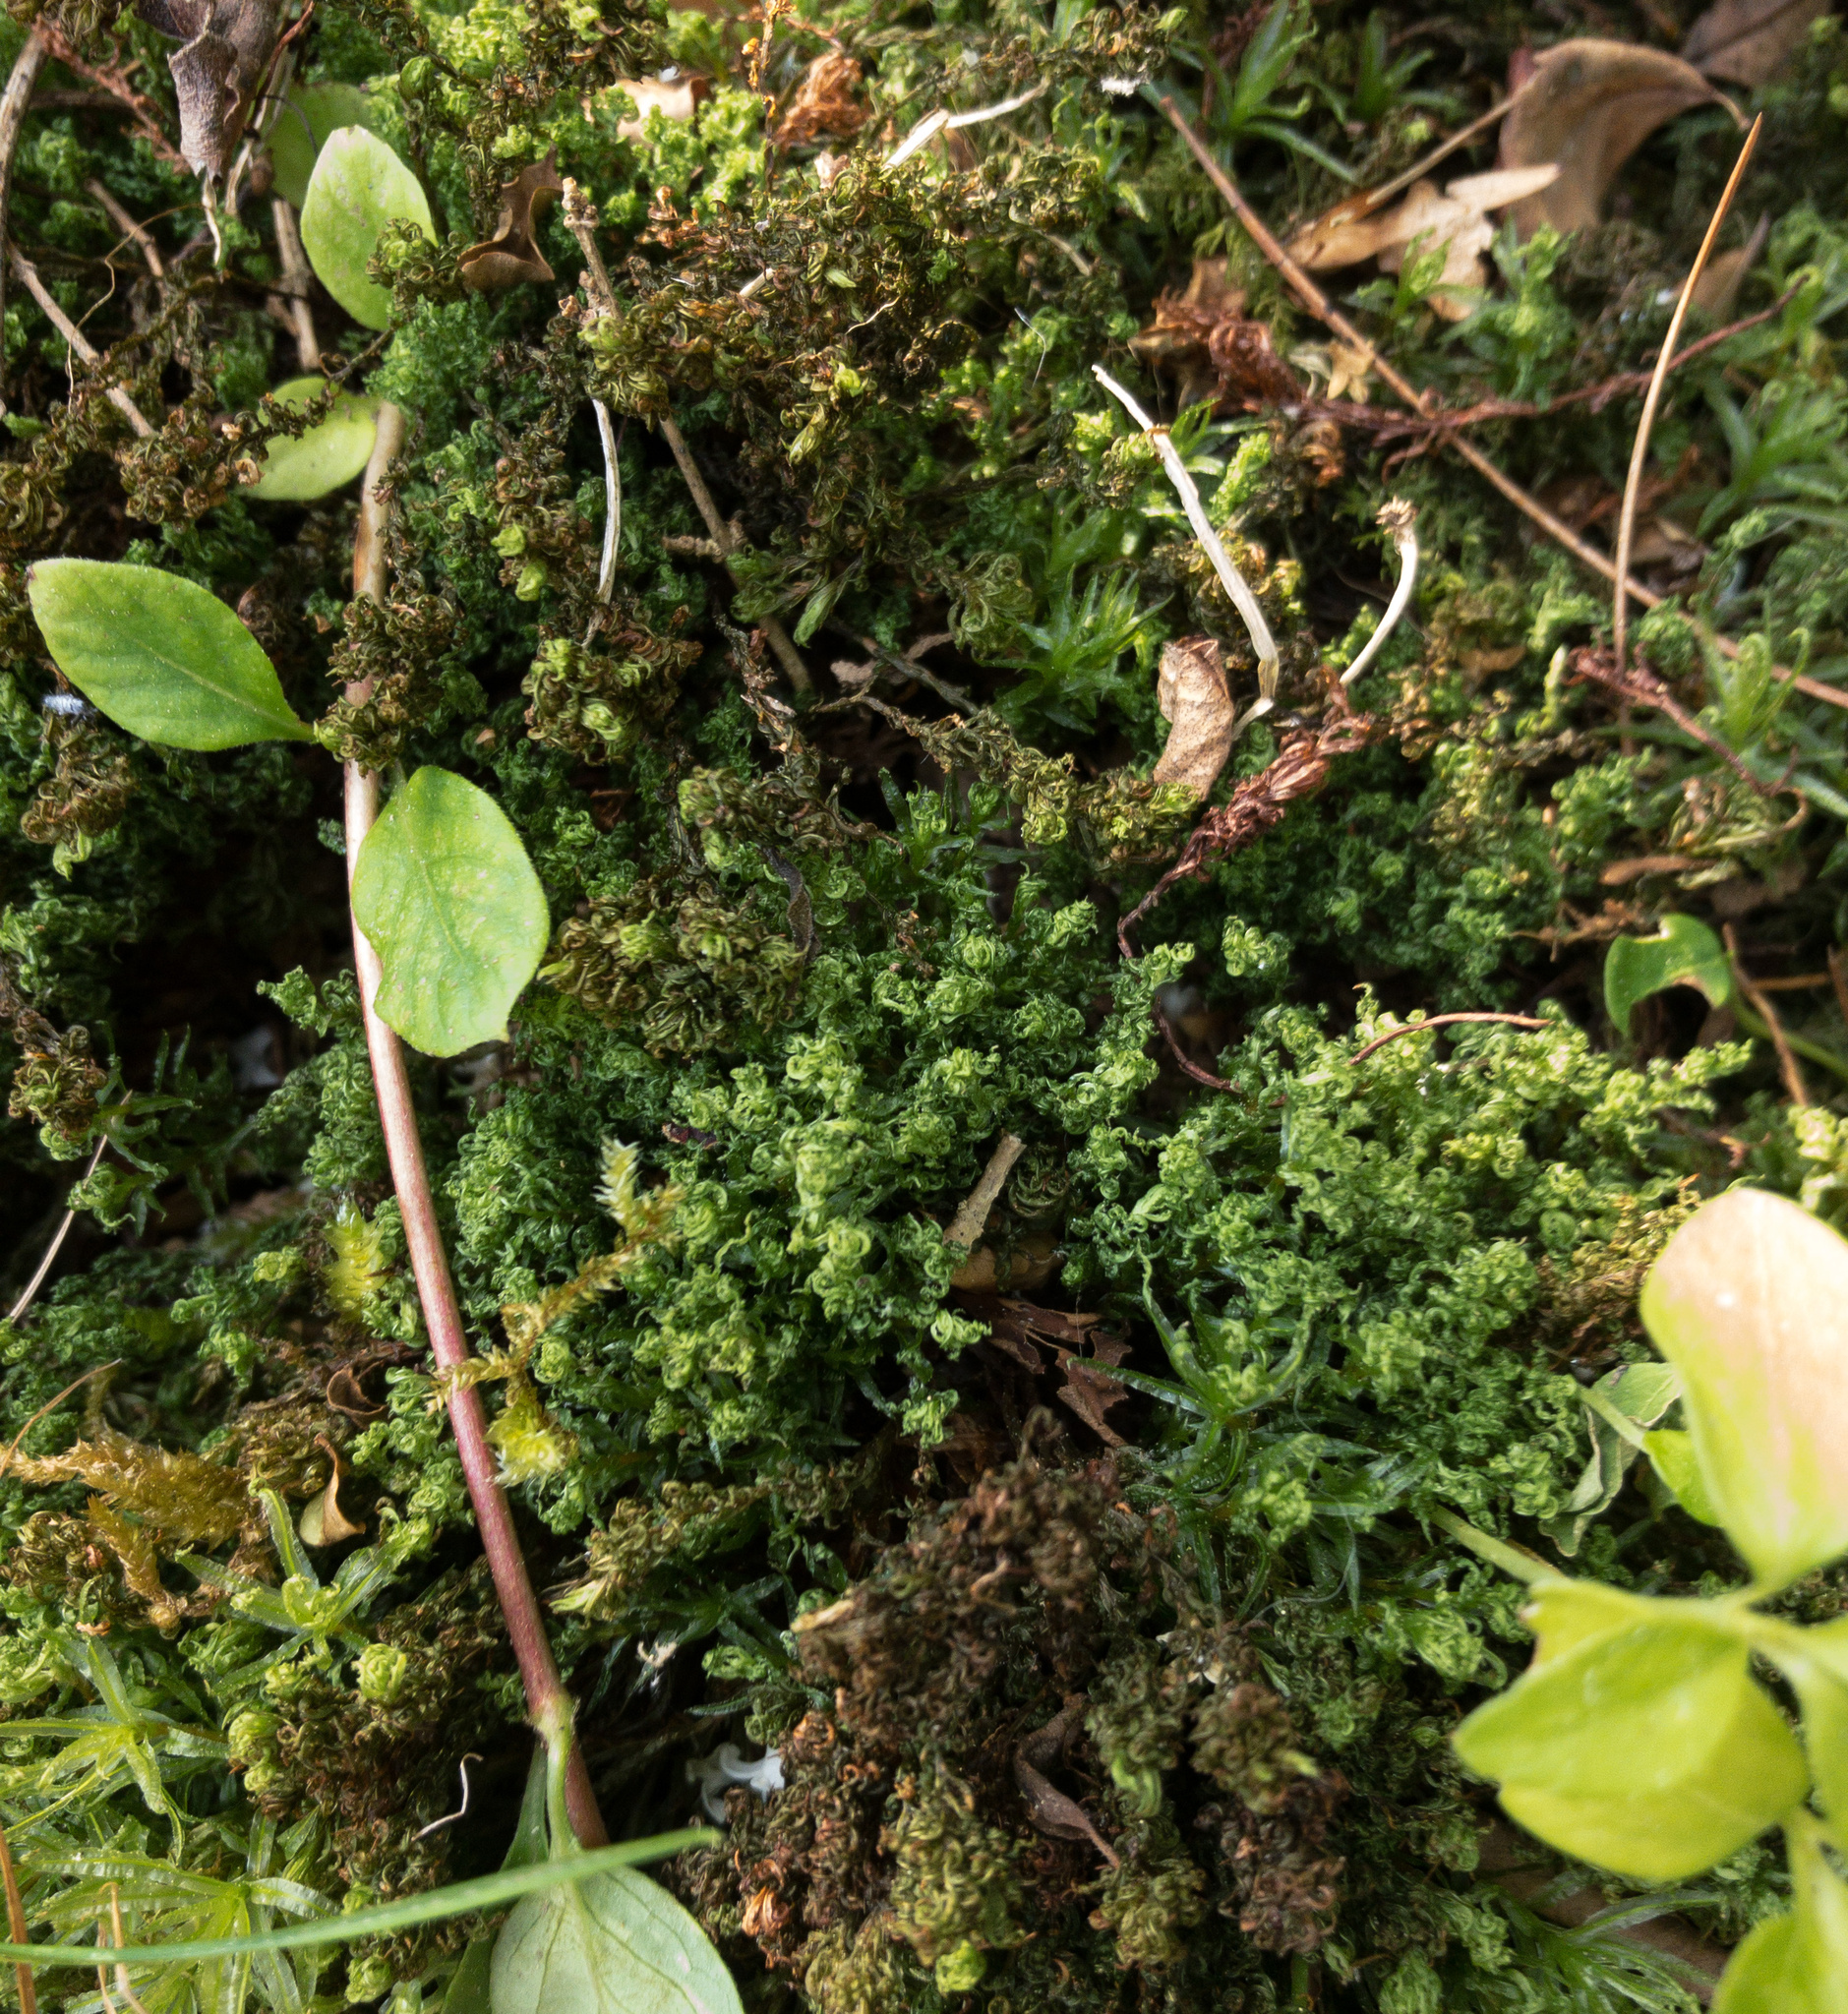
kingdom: Plantae
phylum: Bryophyta
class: Polytrichopsida
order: Polytrichales
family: Polytrichaceae
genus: Atrichum
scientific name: Atrichum altecristatum
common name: Ridged smoothcap moss
